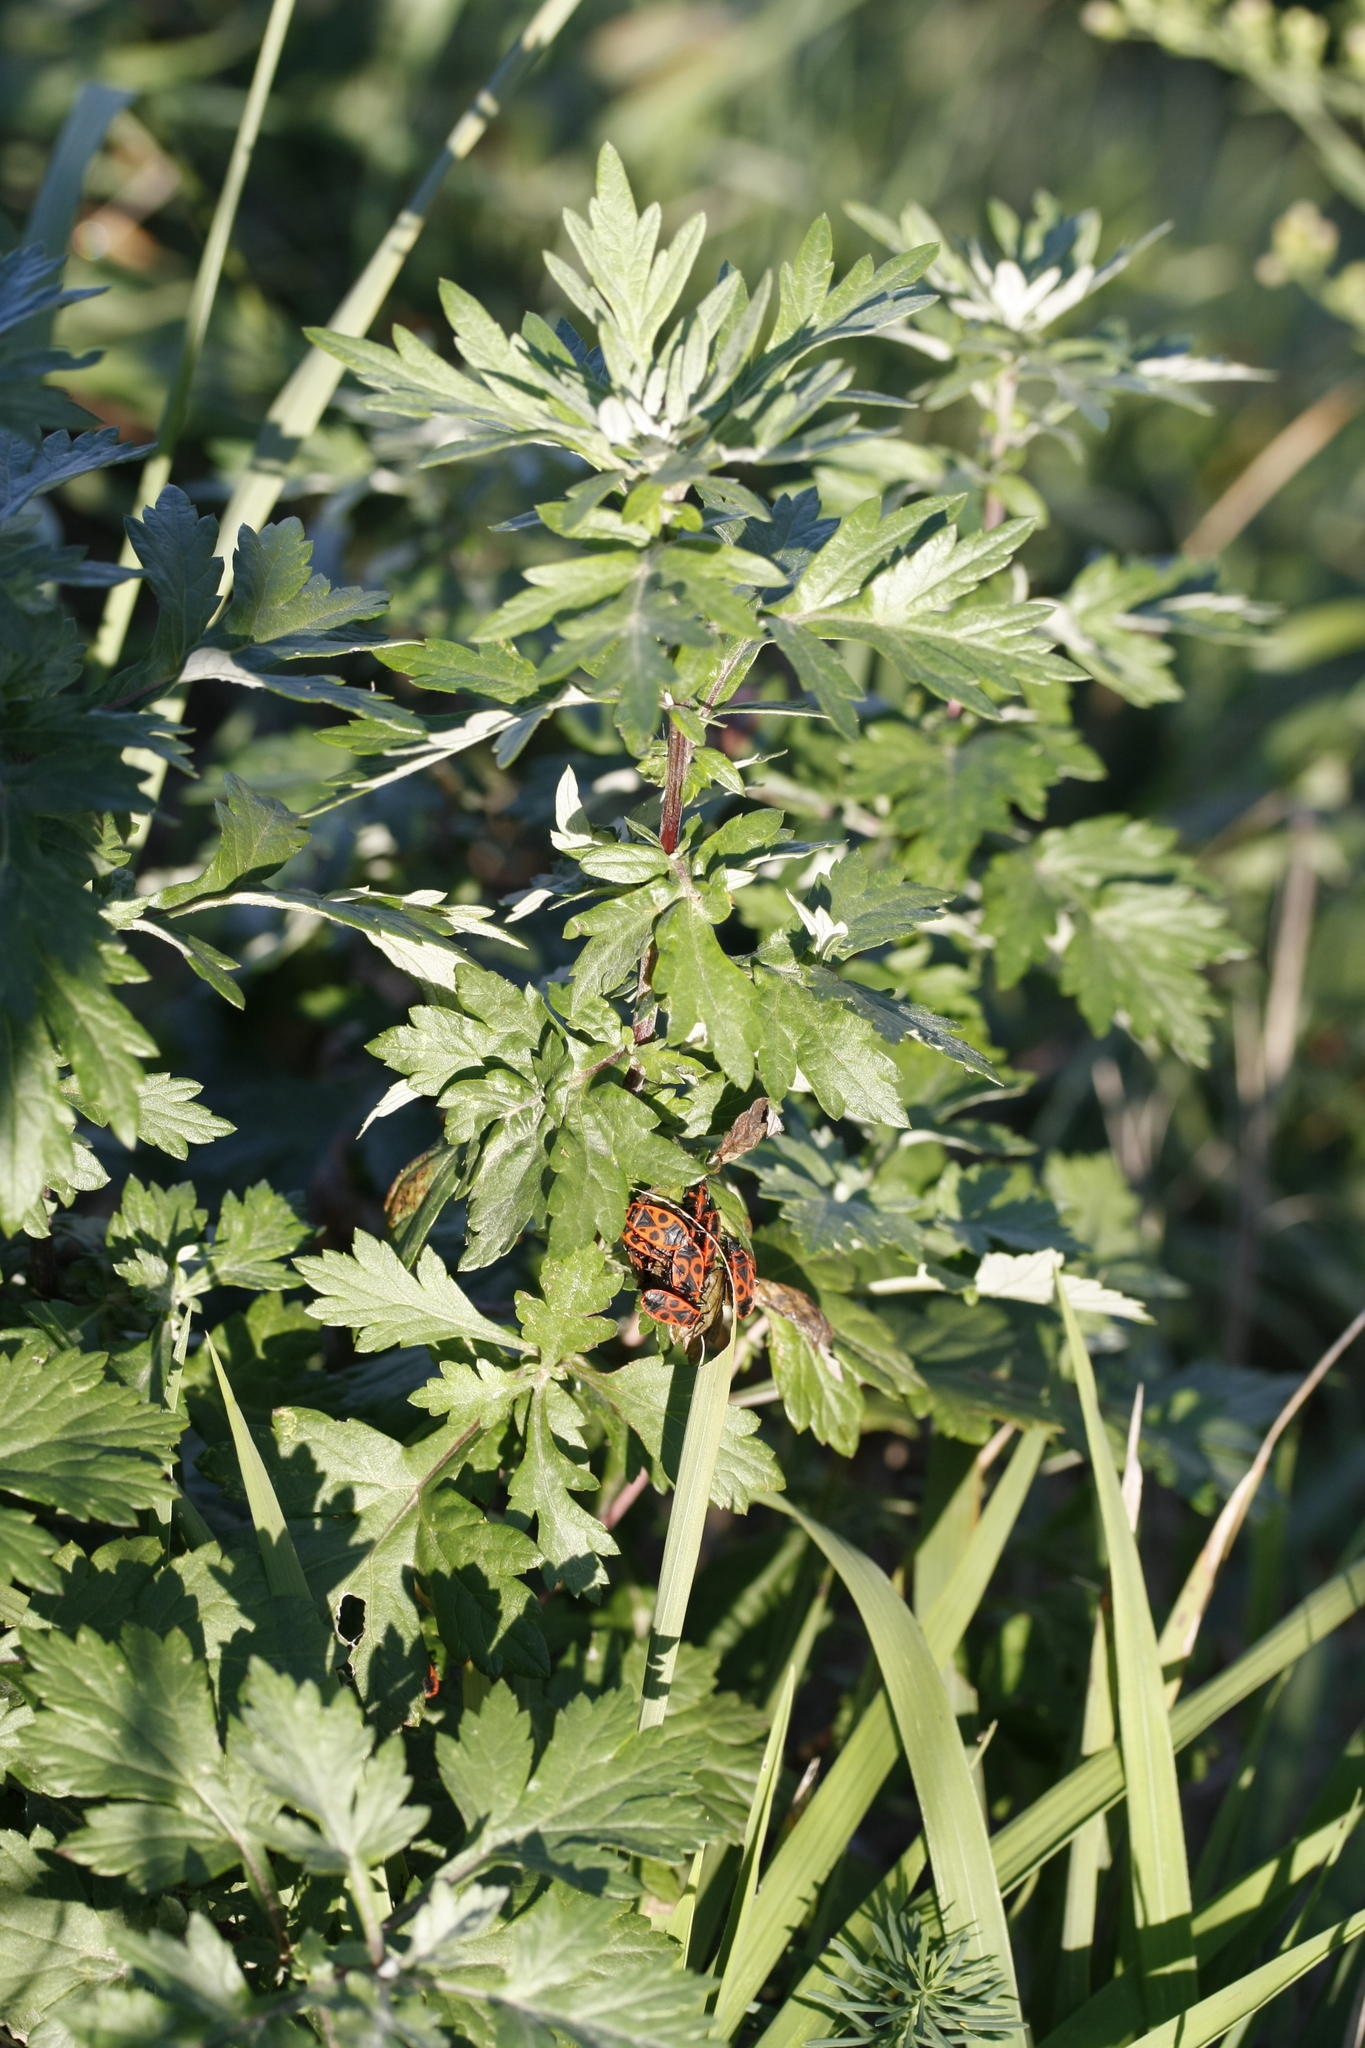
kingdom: Animalia
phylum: Arthropoda
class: Insecta
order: Hemiptera
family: Pyrrhocoridae
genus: Pyrrhocoris
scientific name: Pyrrhocoris apterus
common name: Firebug
